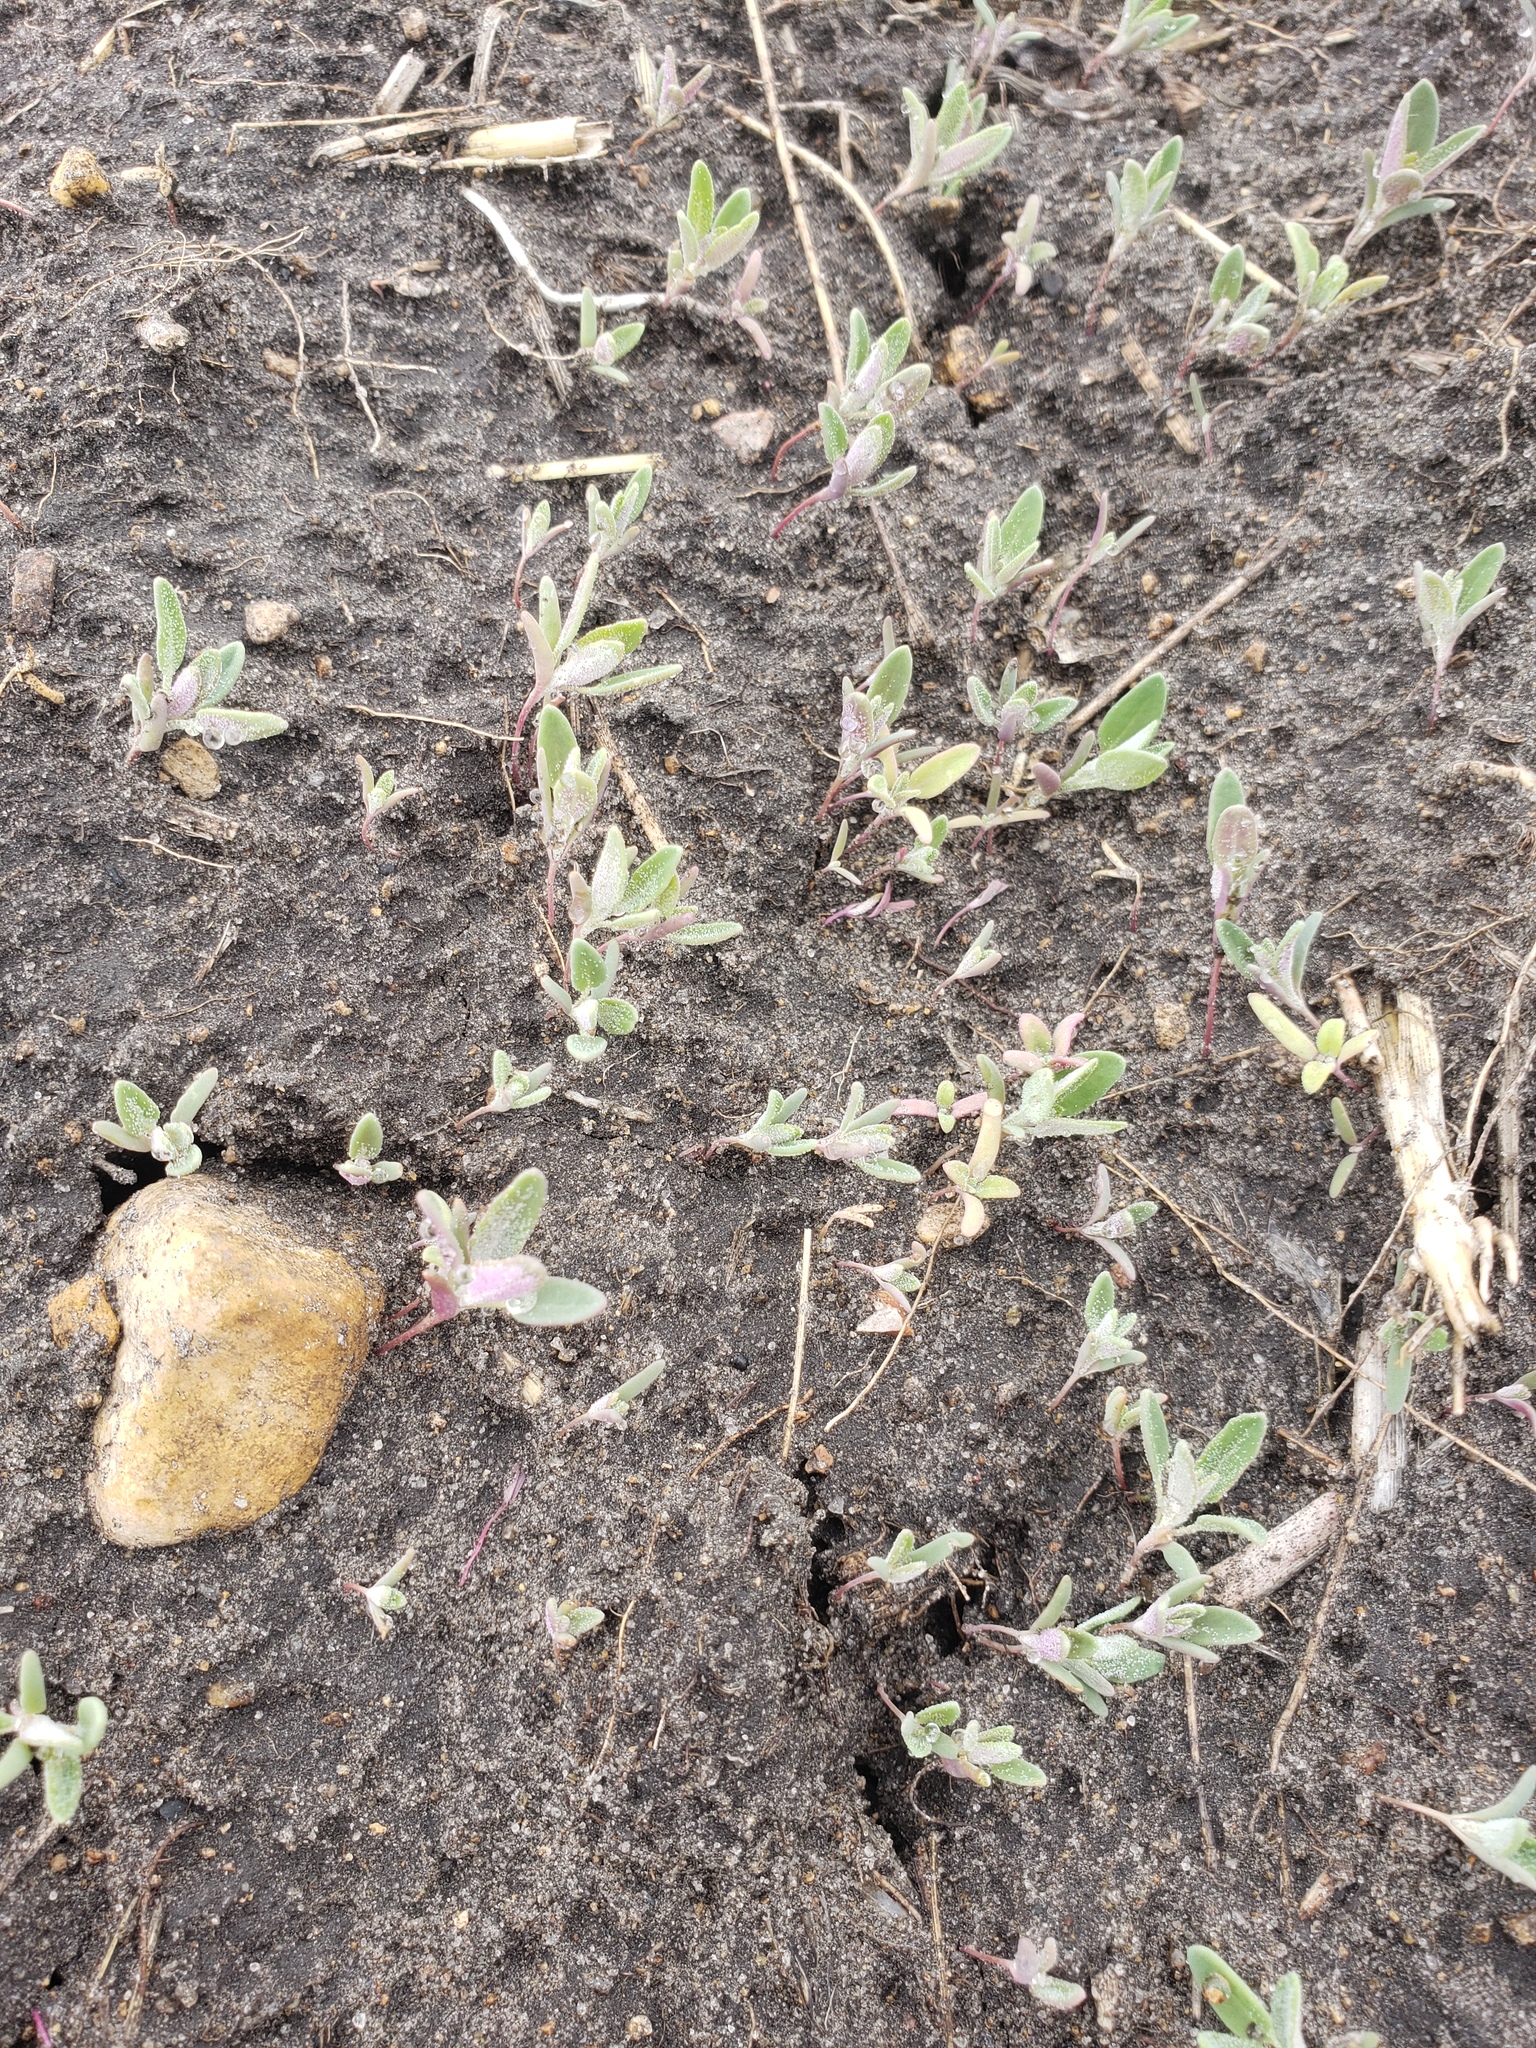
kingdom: Plantae
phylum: Tracheophyta
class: Magnoliopsida
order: Caryophyllales
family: Amaranthaceae
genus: Chenopodium
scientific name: Chenopodium album
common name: Fat-hen
